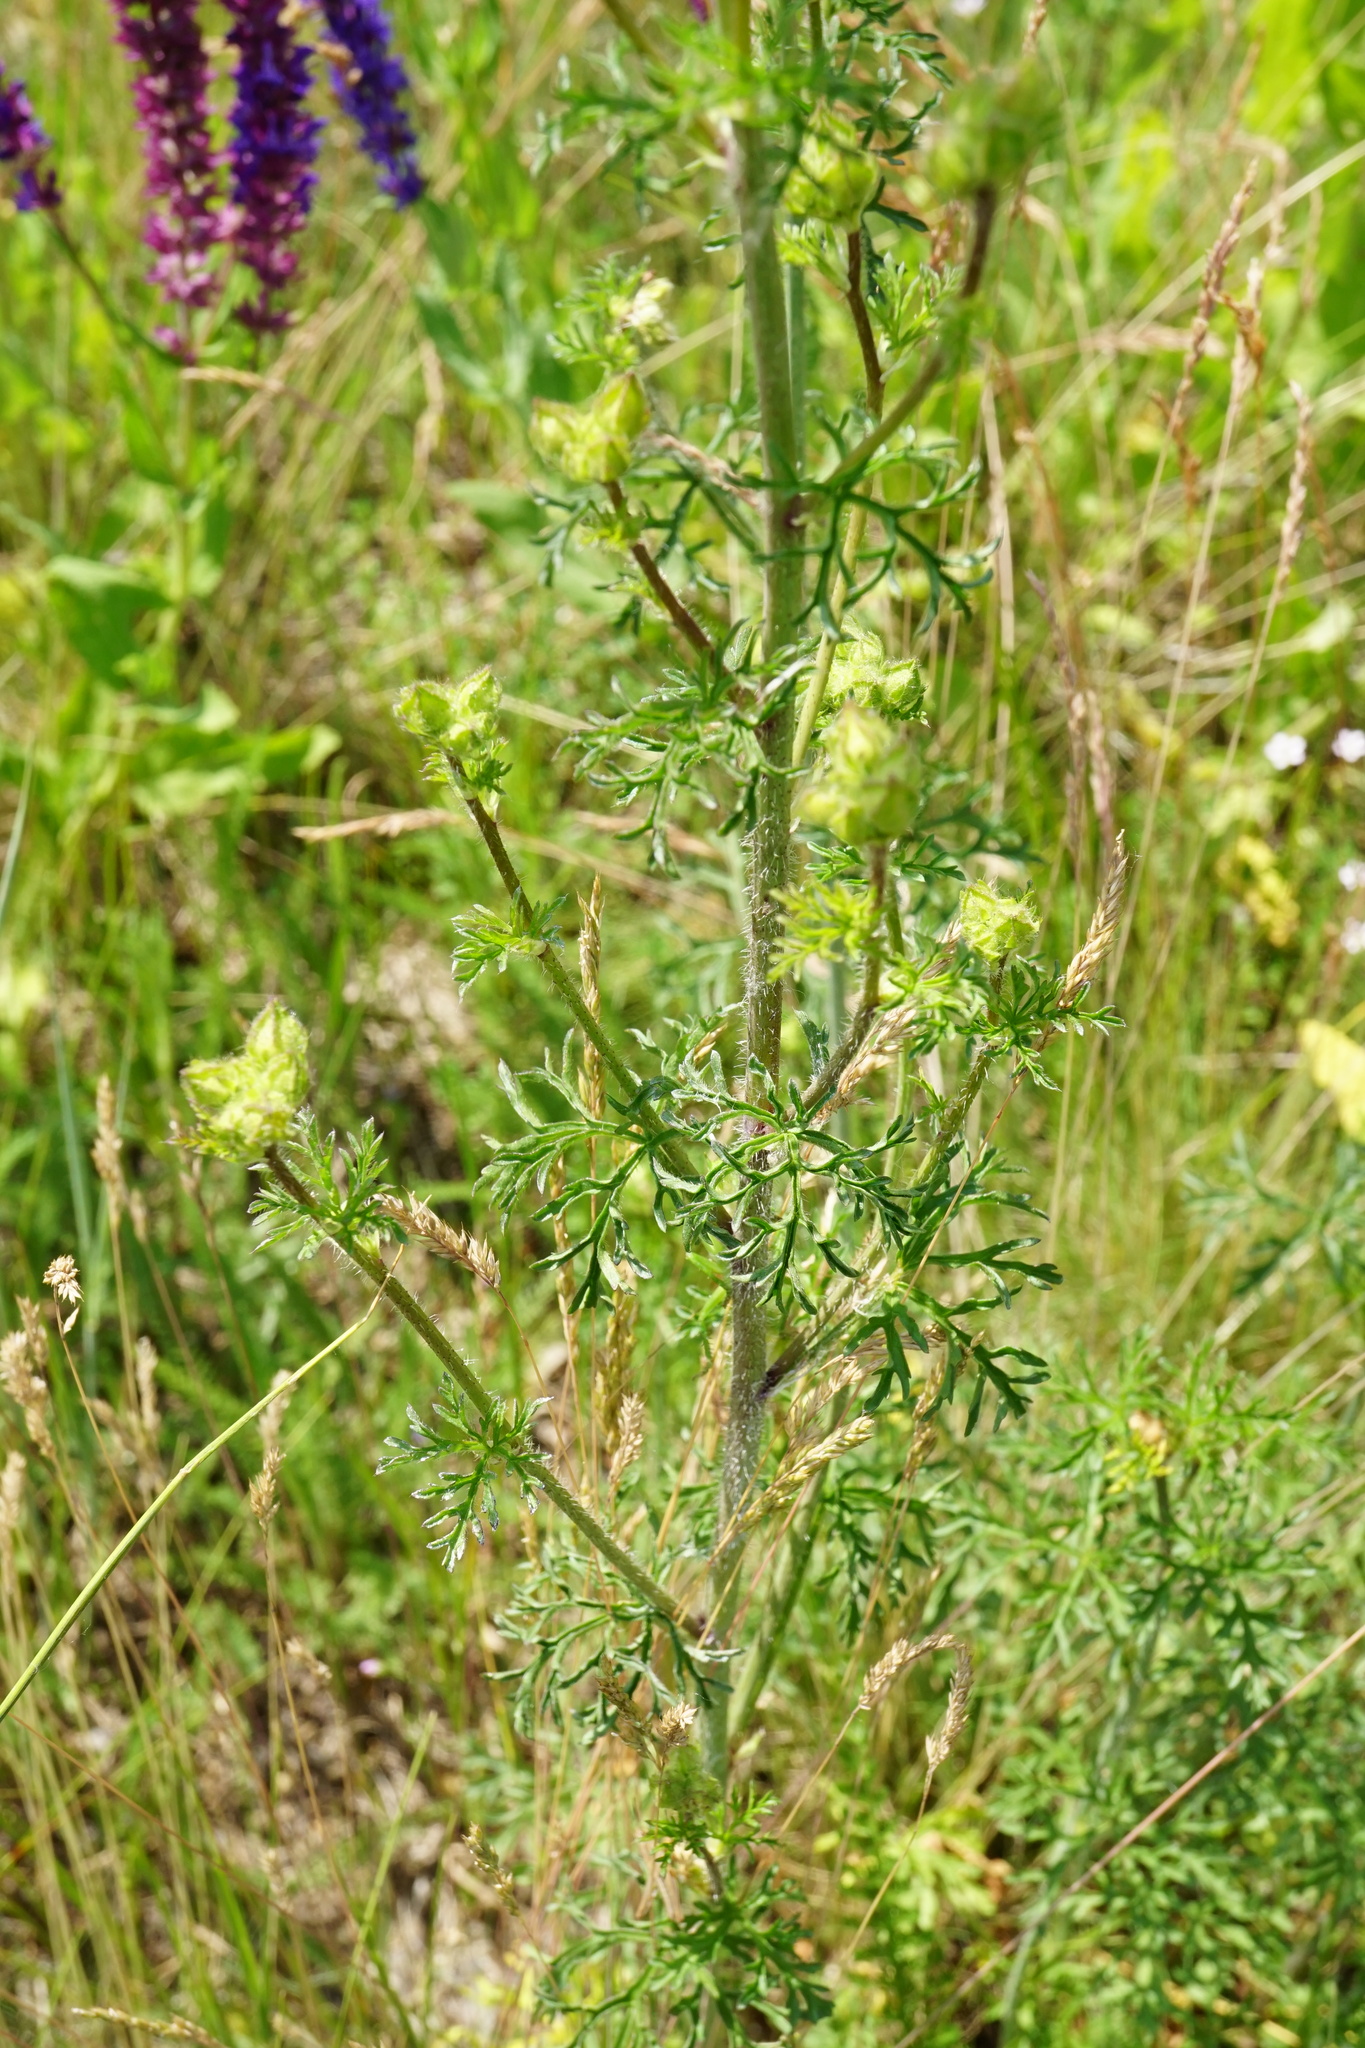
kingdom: Plantae
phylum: Tracheophyta
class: Magnoliopsida
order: Malvales
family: Malvaceae
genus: Malva
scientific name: Malva moschata
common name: Musk mallow
